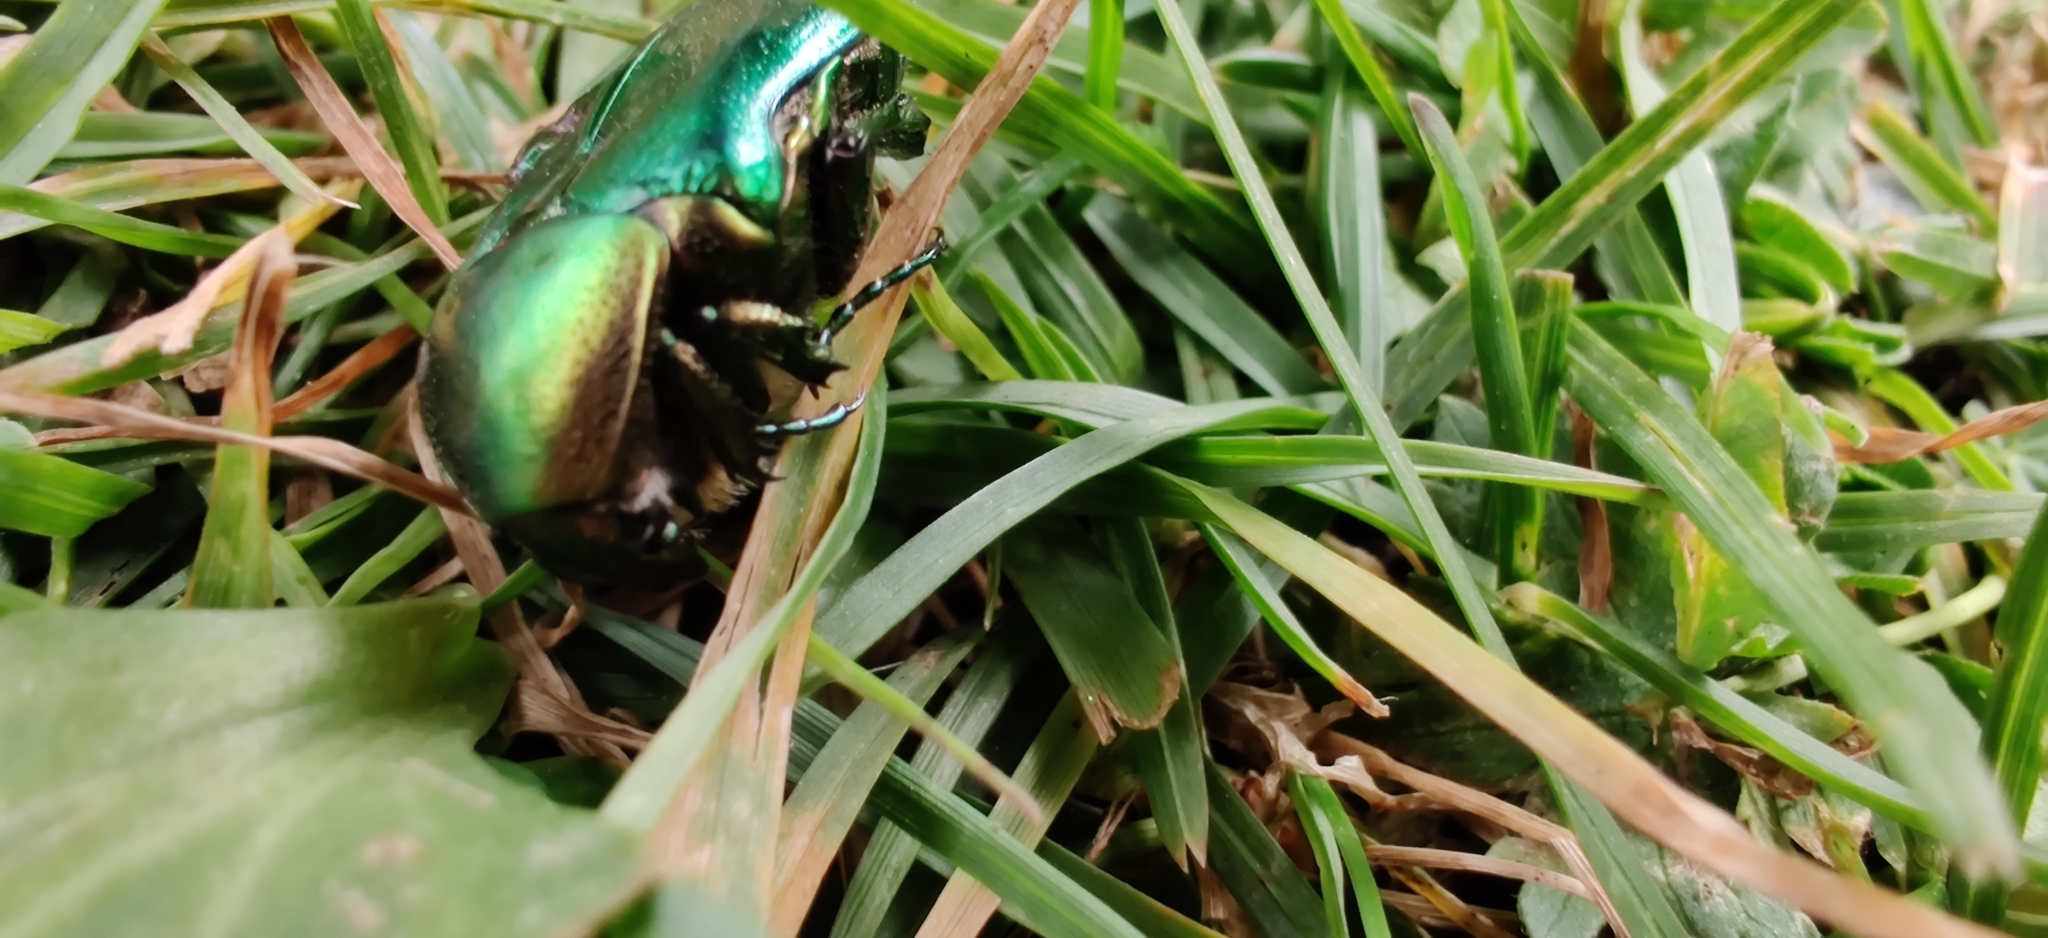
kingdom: Animalia
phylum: Arthropoda
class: Insecta
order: Coleoptera
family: Scarabaeidae
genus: Cetonia
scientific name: Cetonia aurata
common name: Rose chafer
